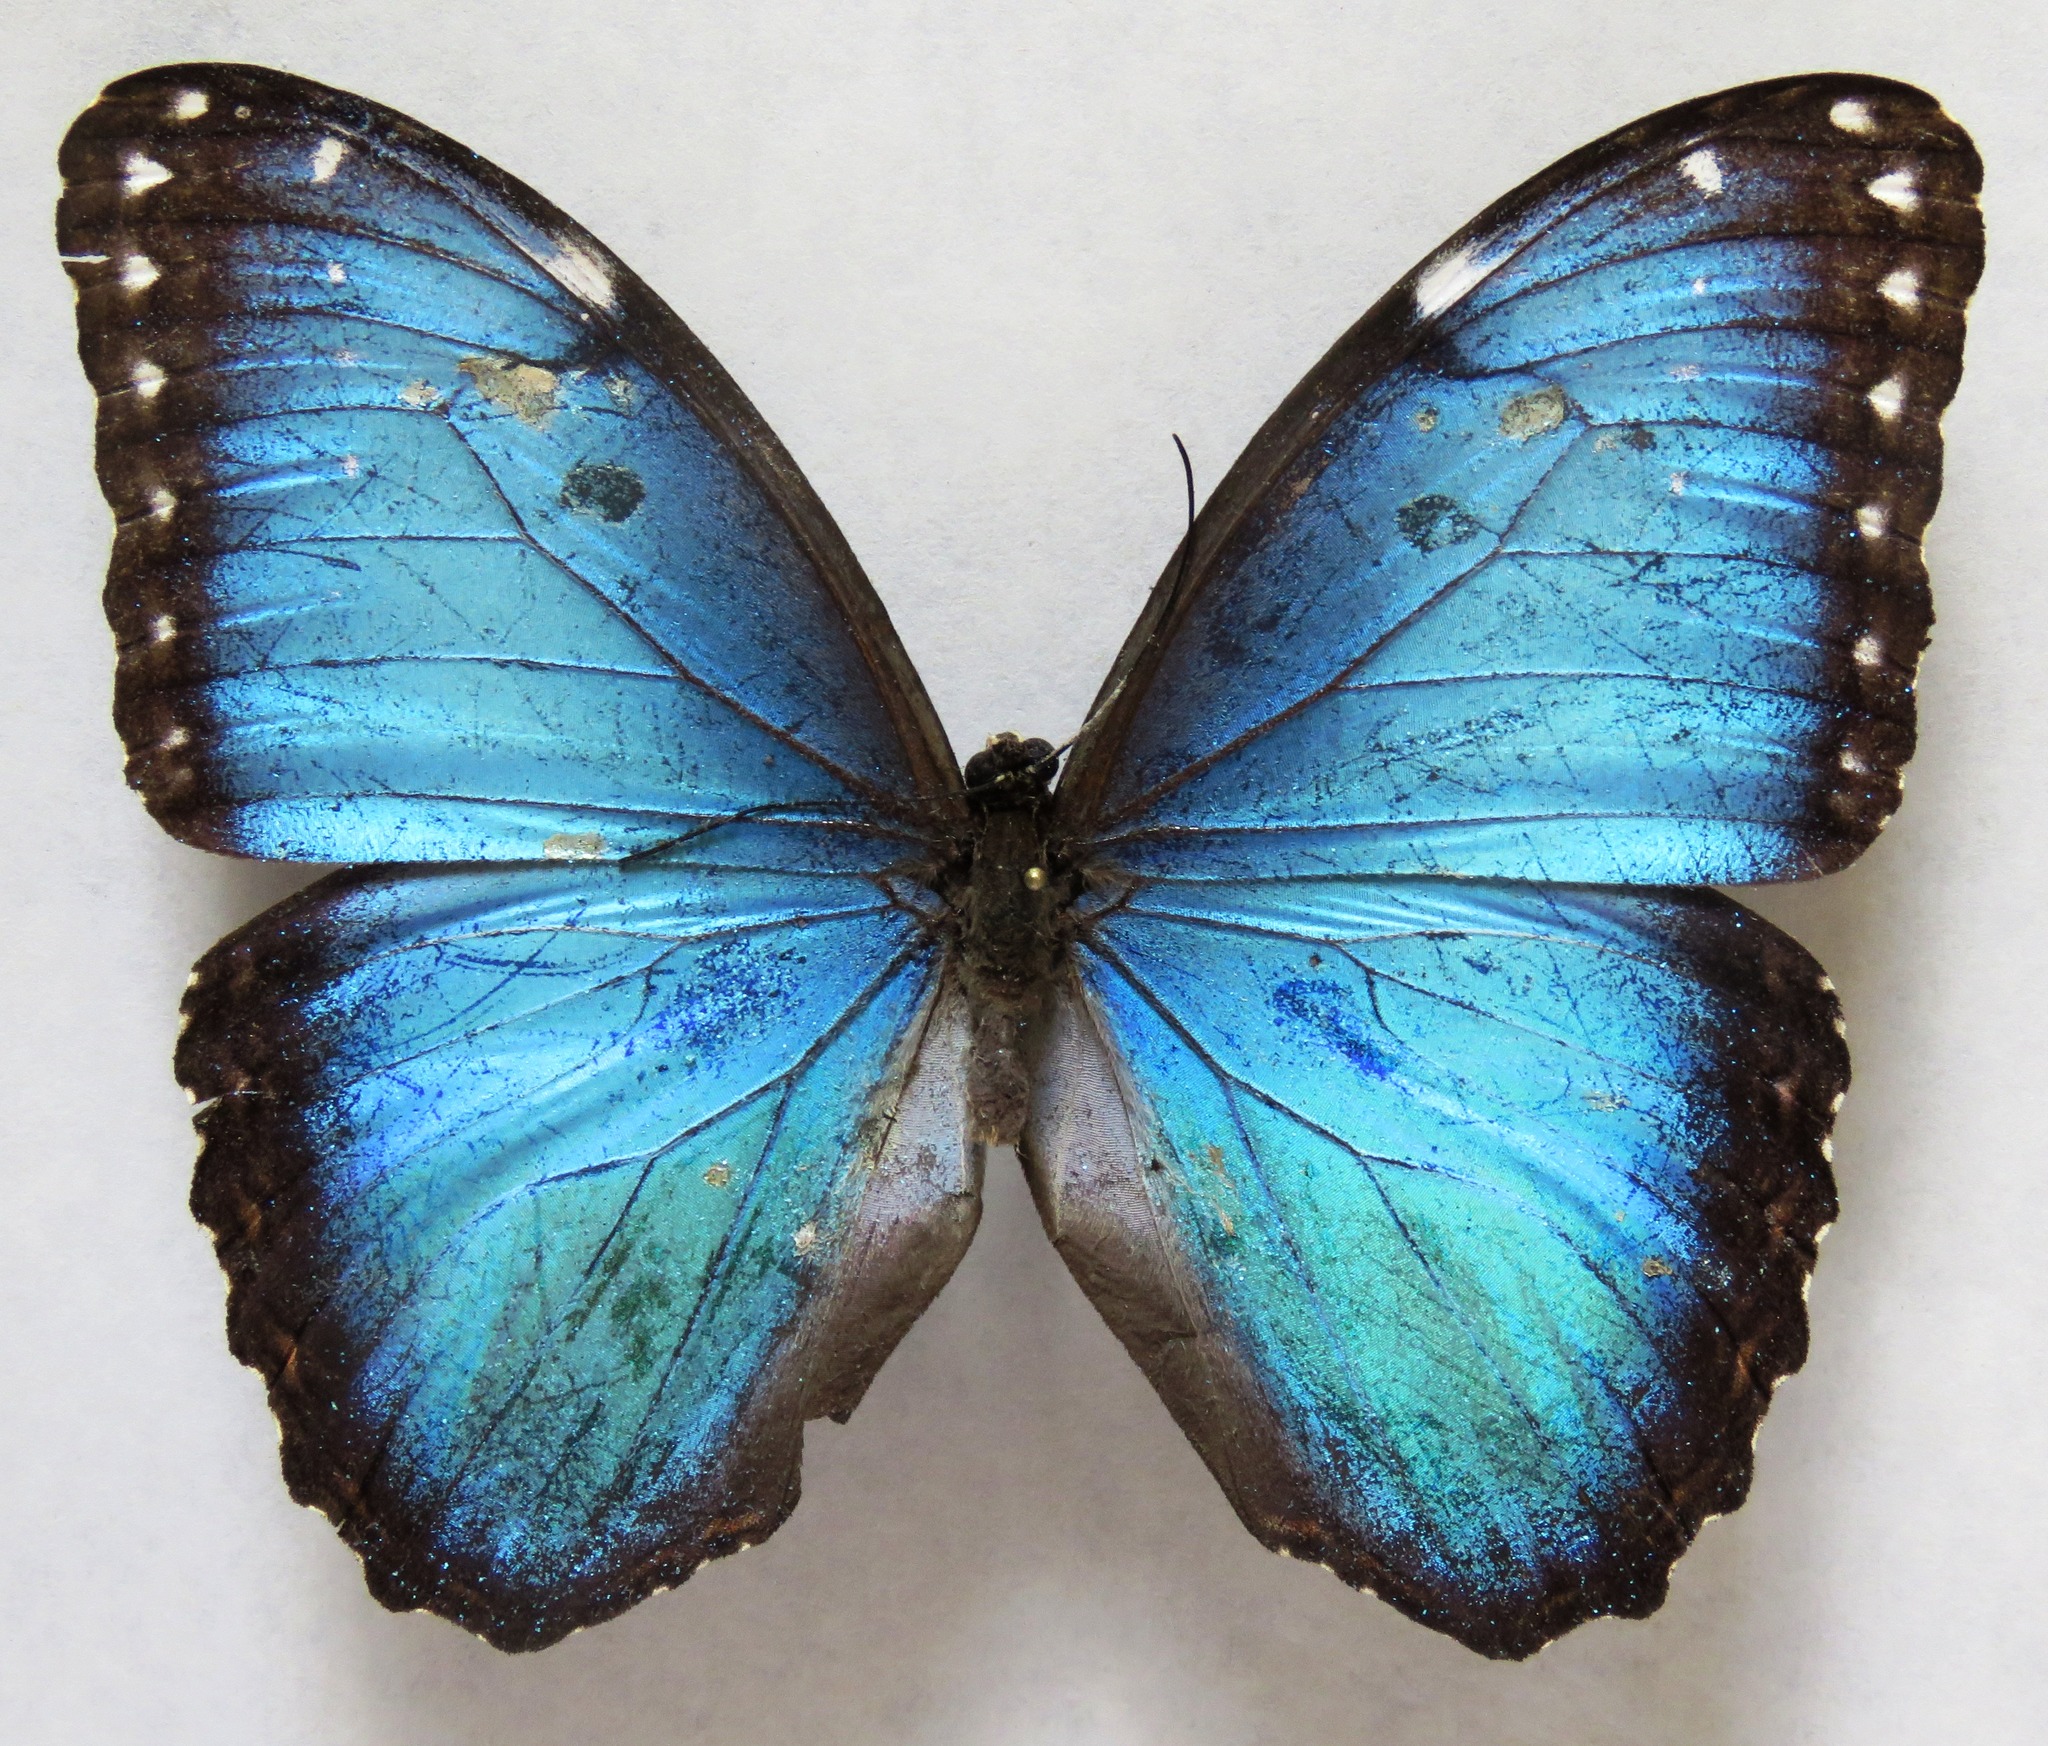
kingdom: Animalia
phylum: Arthropoda
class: Insecta
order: Lepidoptera
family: Nymphalidae
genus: Morpho
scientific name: Morpho helenor
